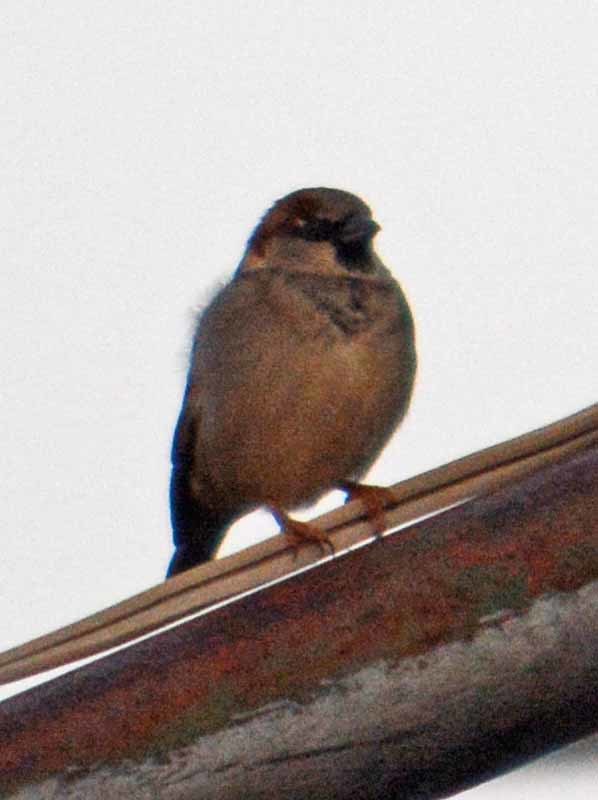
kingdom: Animalia
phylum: Chordata
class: Aves
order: Passeriformes
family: Passeridae
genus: Passer
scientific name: Passer domesticus
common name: House sparrow
